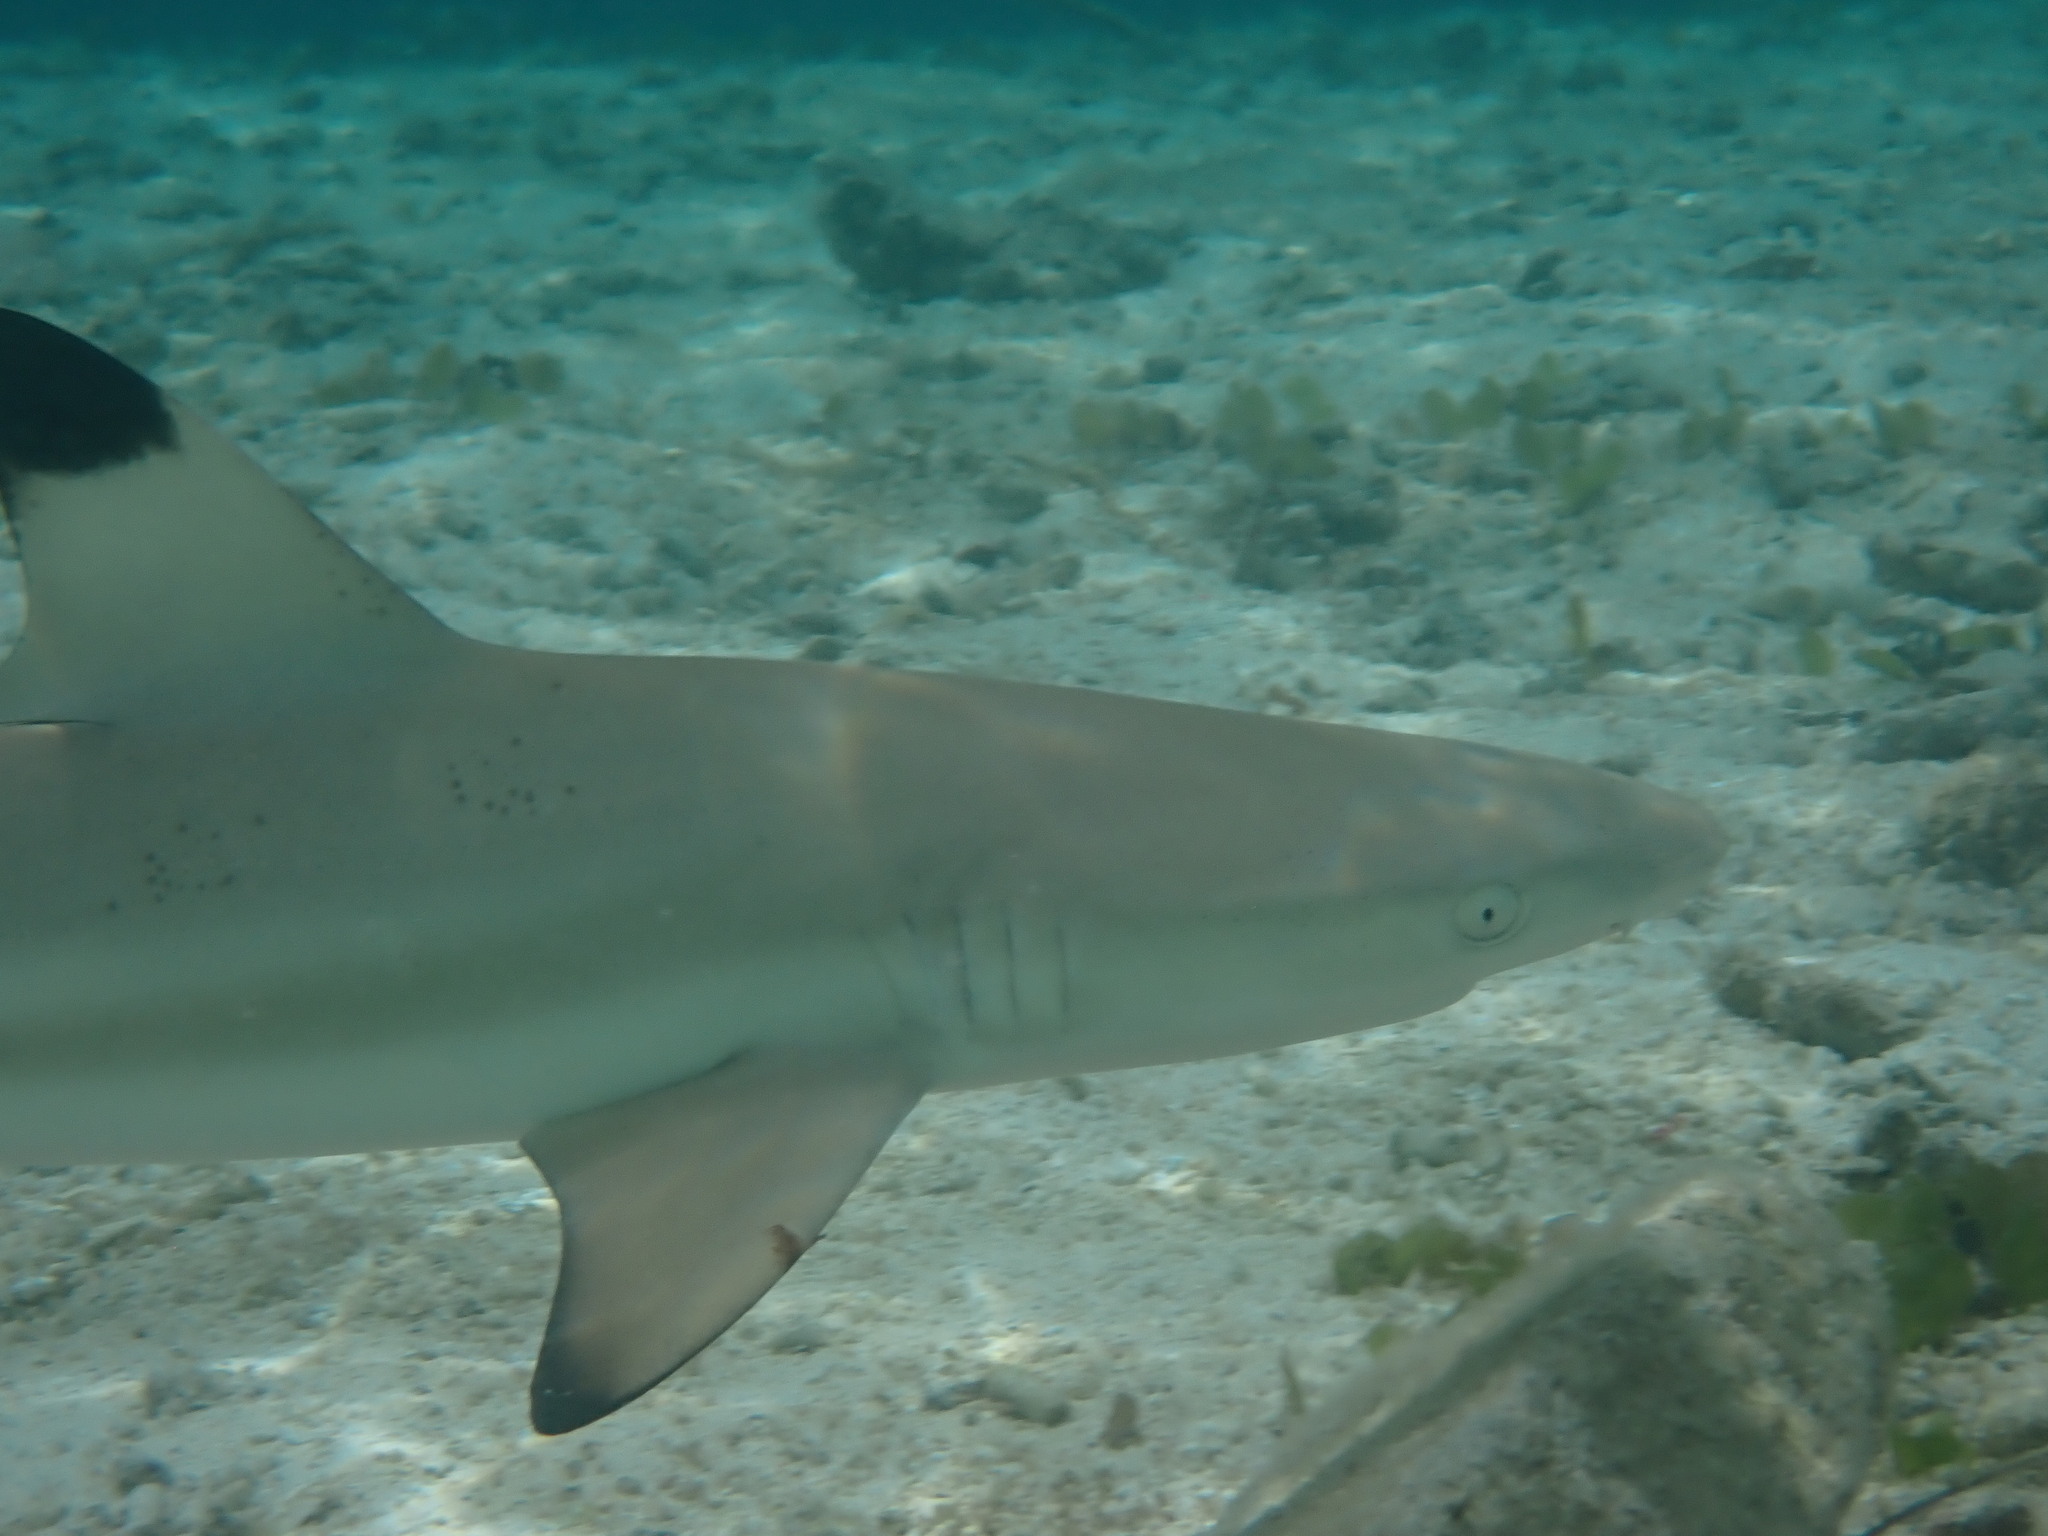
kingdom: Animalia
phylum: Chordata
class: Elasmobranchii
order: Carcharhiniformes
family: Carcharhinidae
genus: Carcharhinus
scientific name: Carcharhinus melanopterus
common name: Blacktip reef shark
